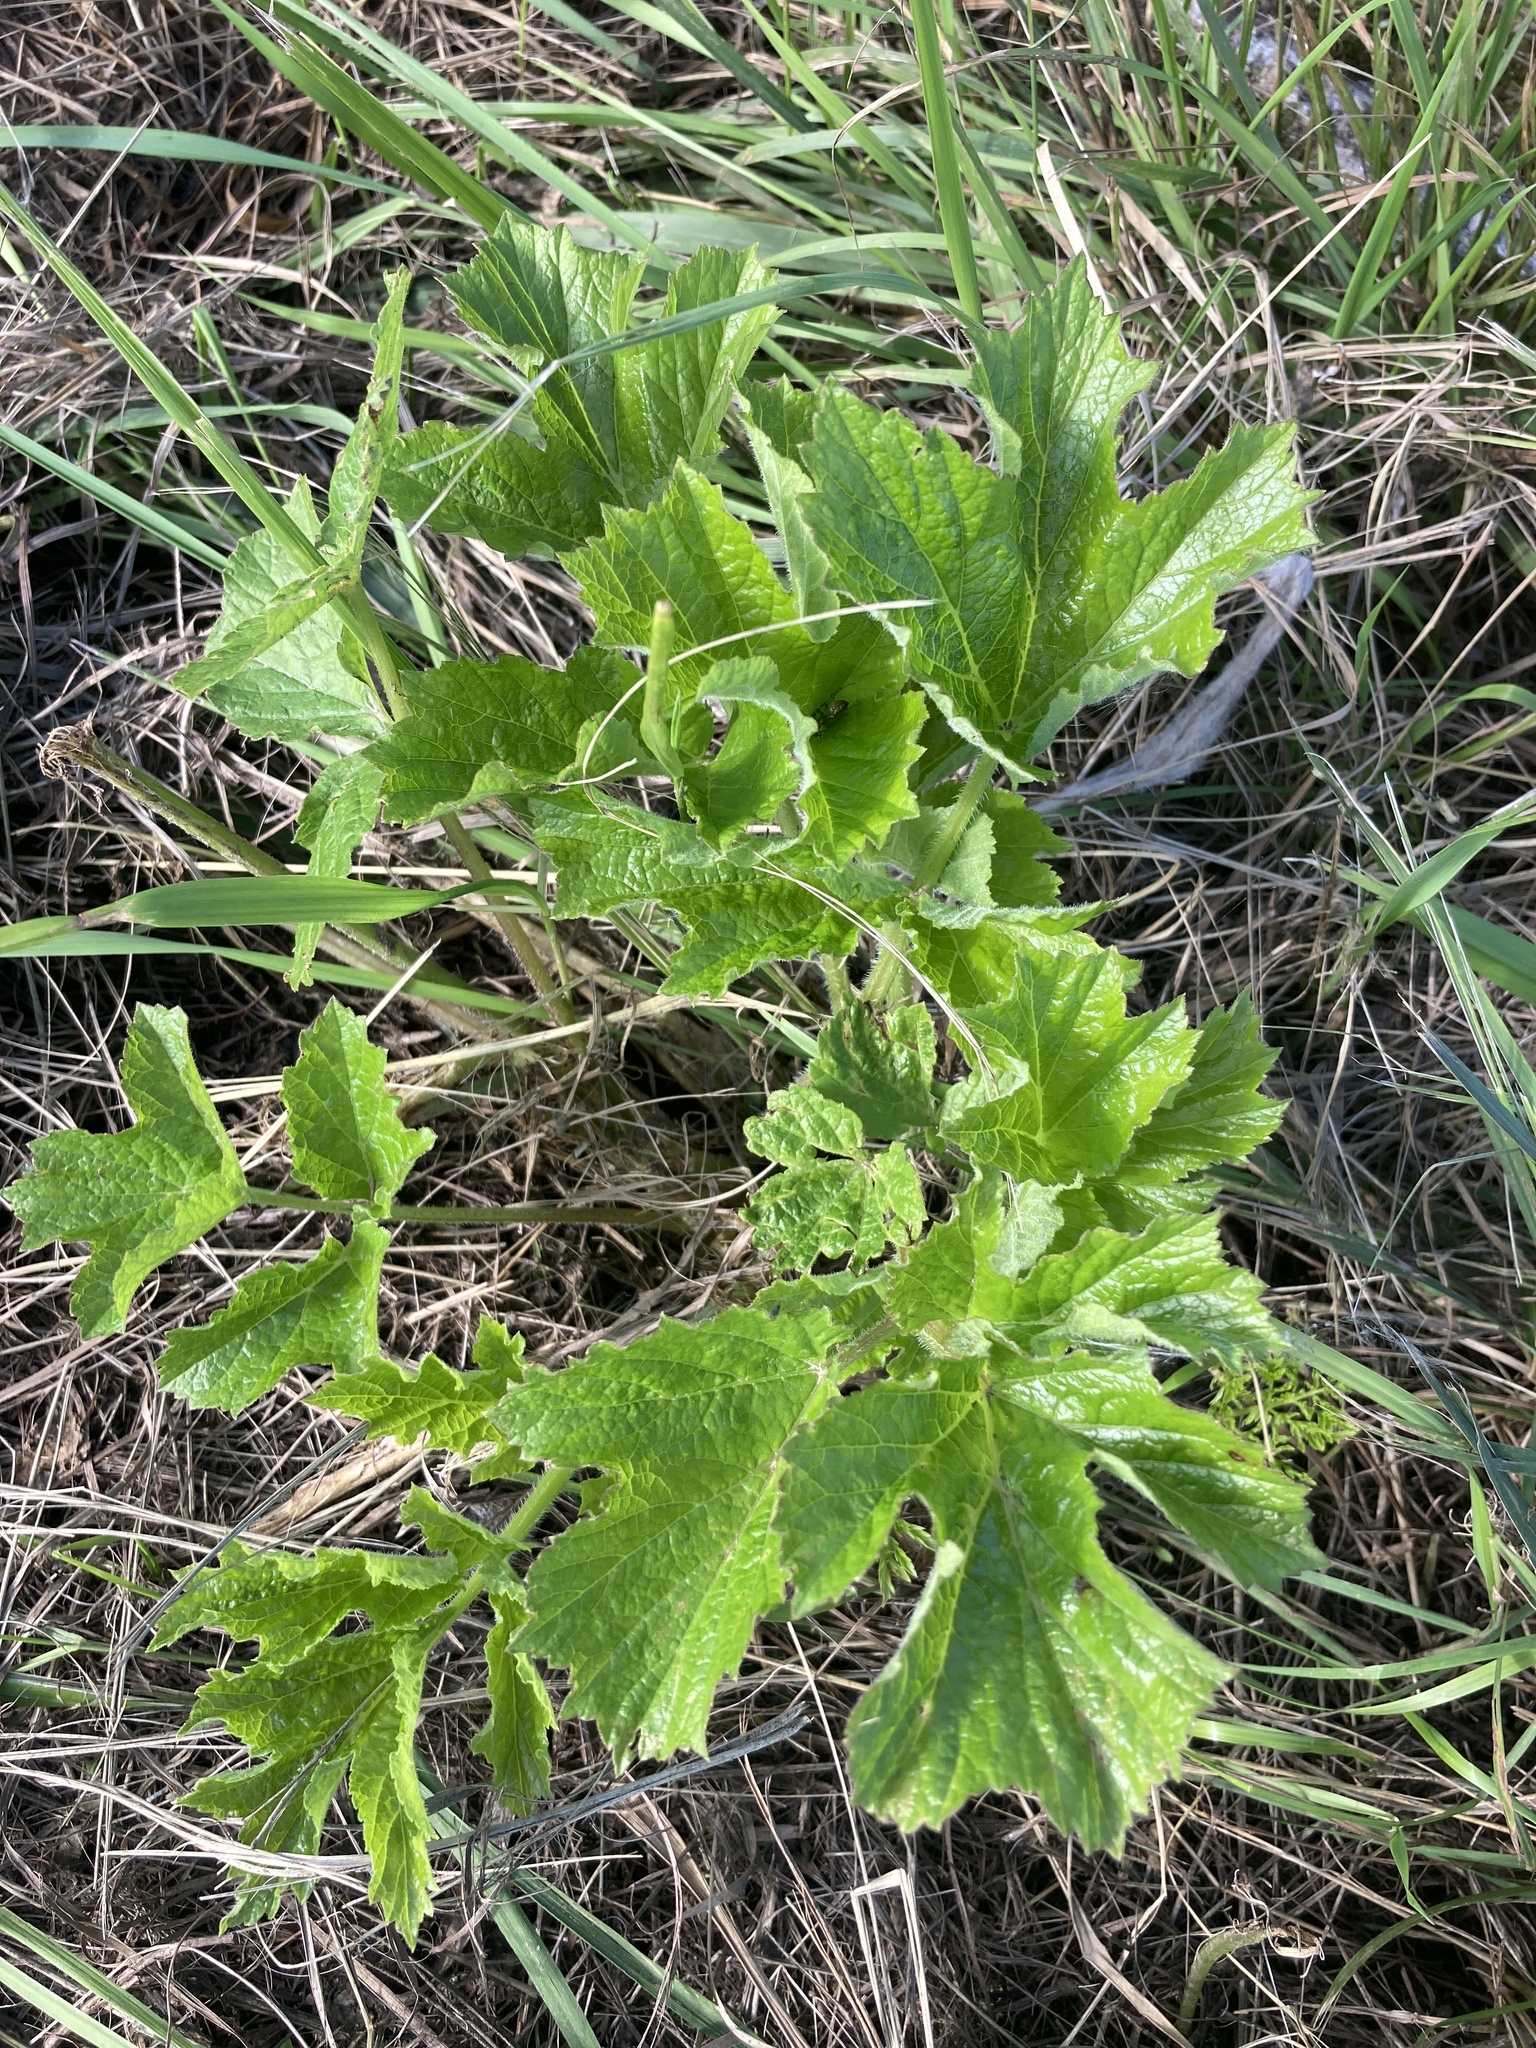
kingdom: Plantae
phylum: Tracheophyta
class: Magnoliopsida
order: Apiales
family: Apiaceae
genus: Heracleum
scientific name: Heracleum sphondylium
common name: Hogweed
